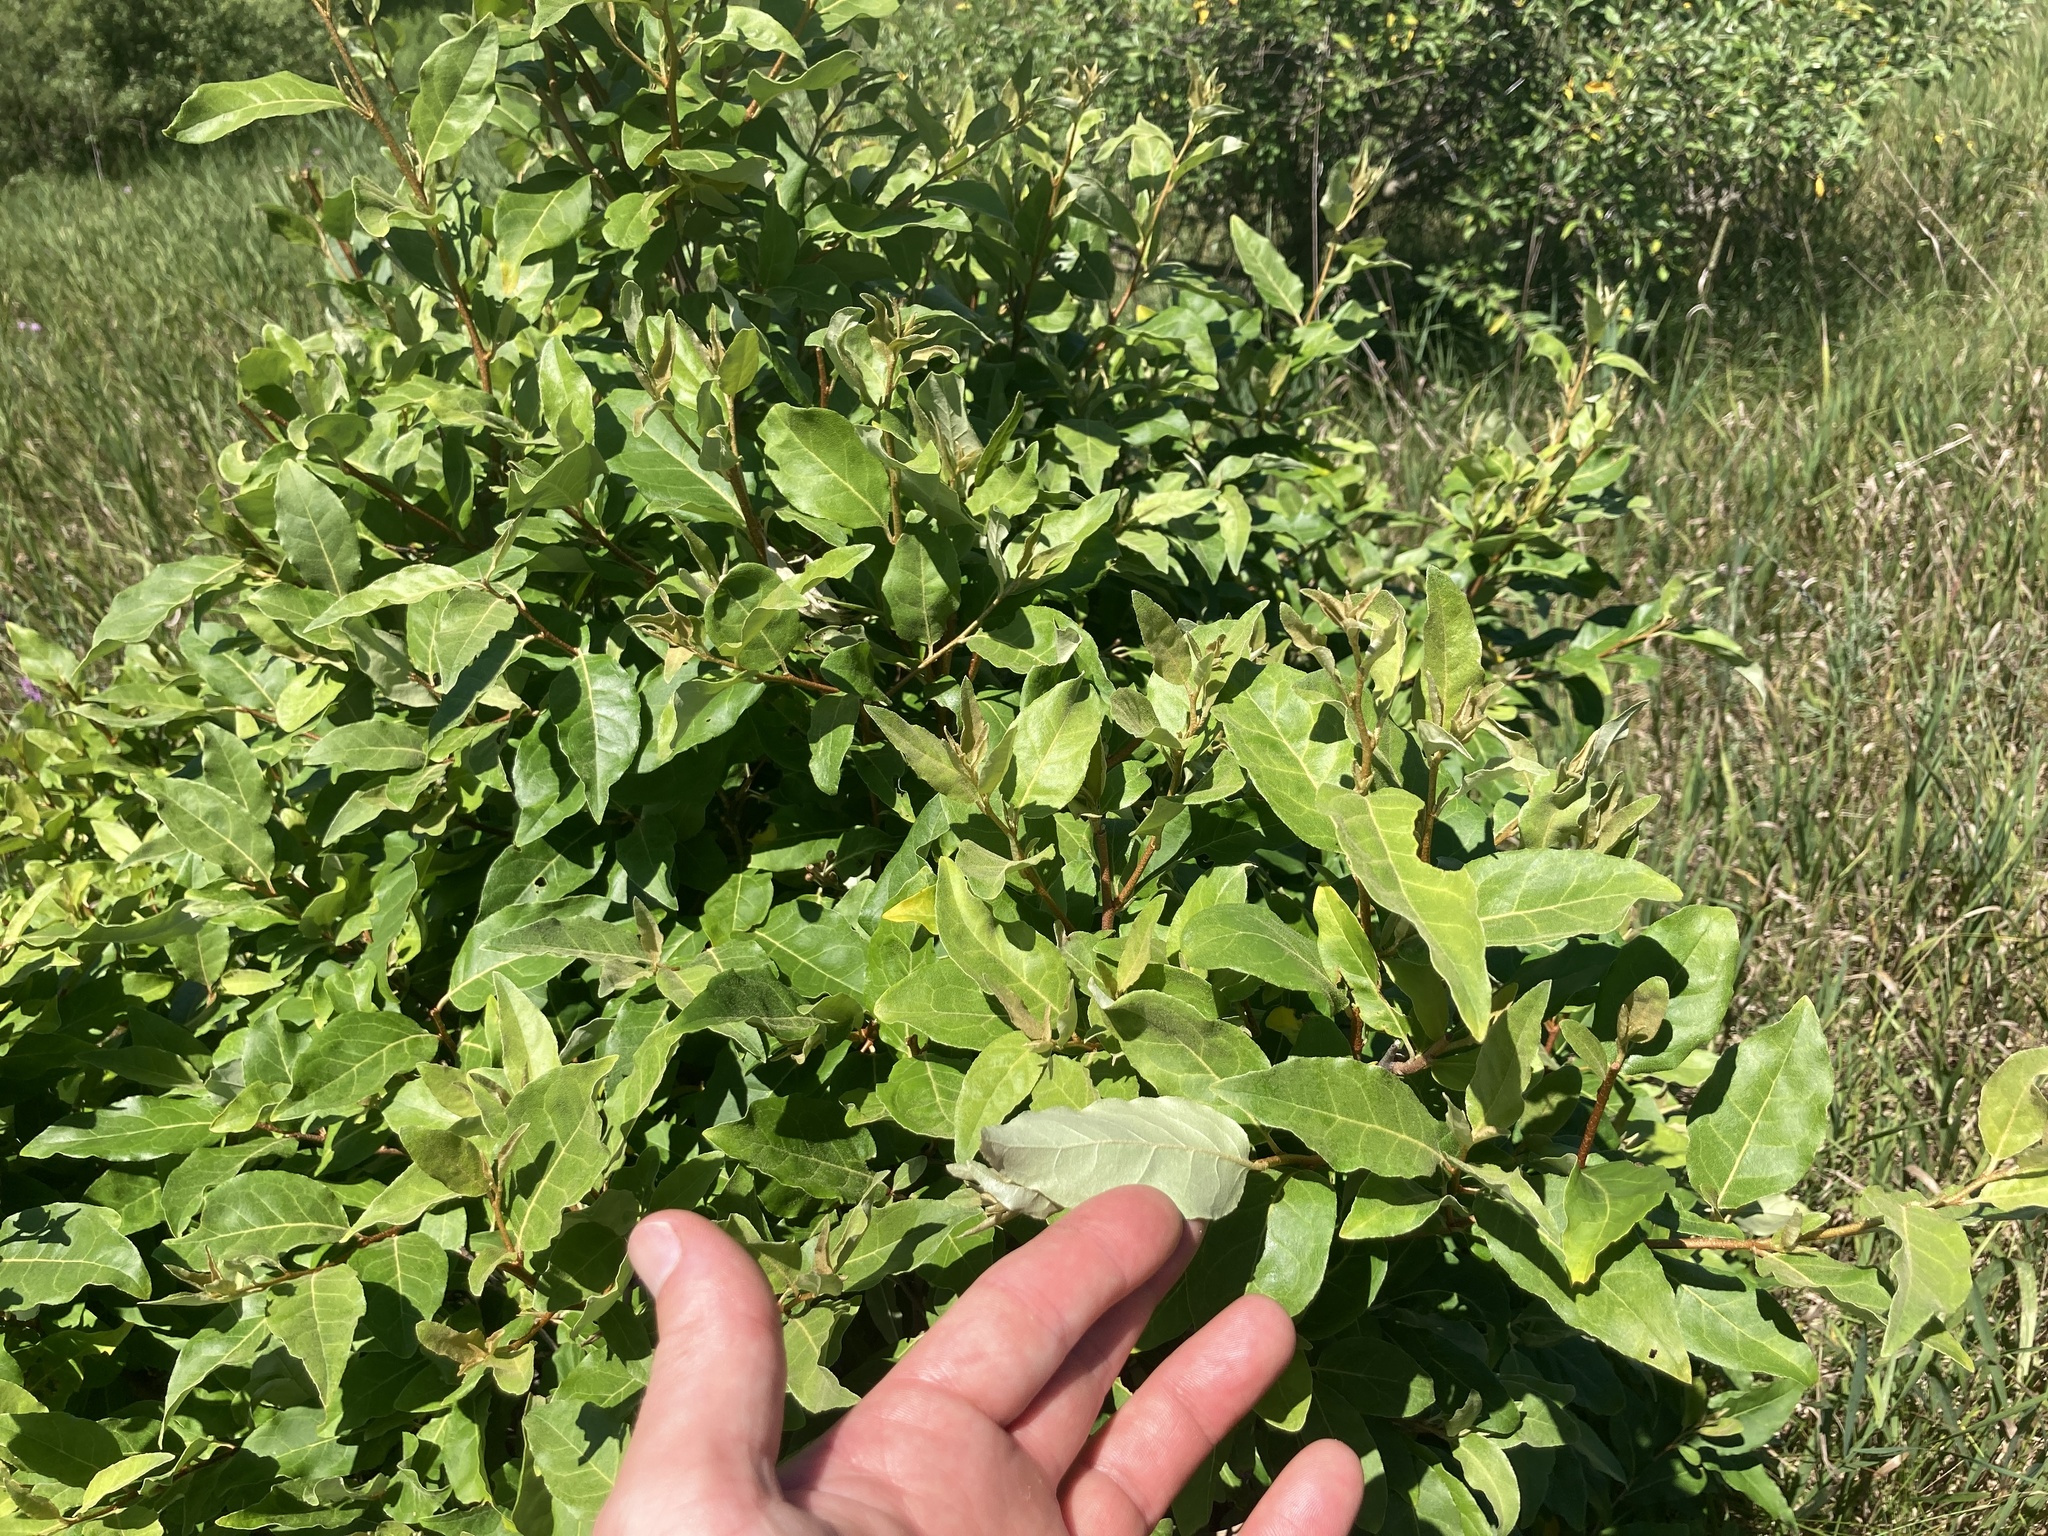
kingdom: Plantae
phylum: Tracheophyta
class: Magnoliopsida
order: Rosales
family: Elaeagnaceae
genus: Elaeagnus
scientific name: Elaeagnus umbellata
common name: Autumn olive
